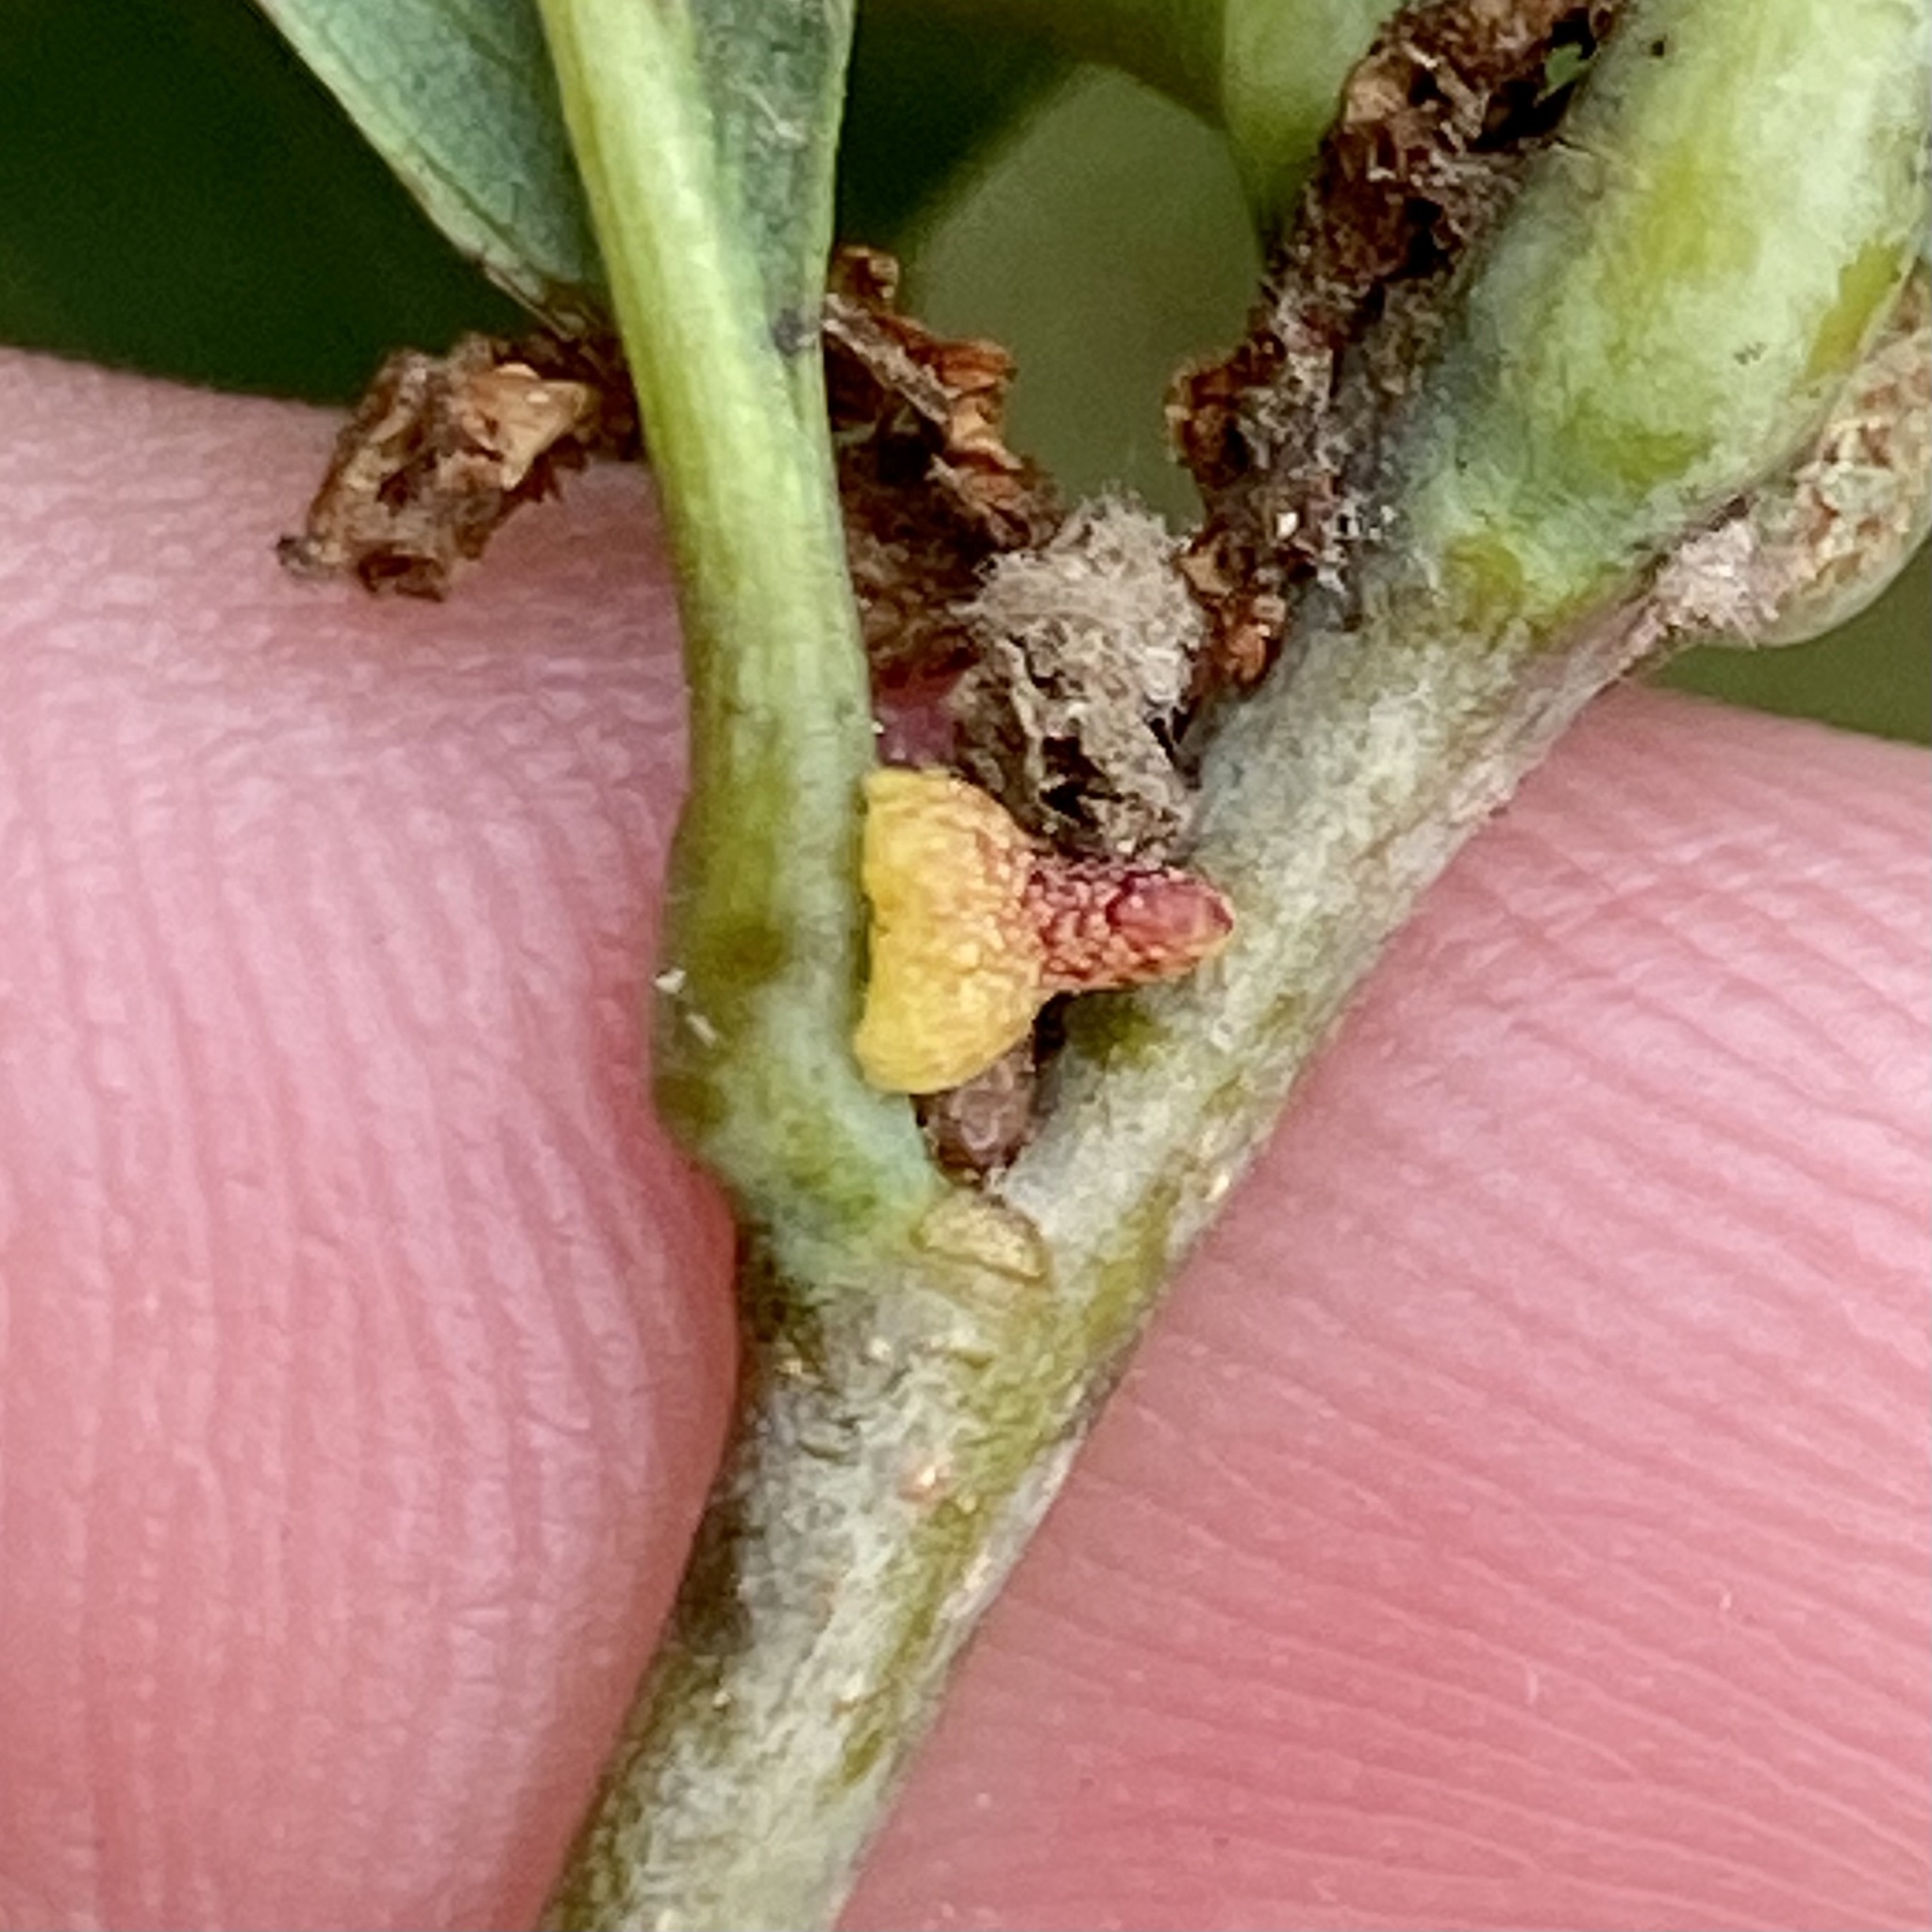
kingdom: Animalia
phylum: Arthropoda
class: Insecta
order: Hymenoptera
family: Cynipidae
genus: Zopheroteras
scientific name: Zopheroteras
